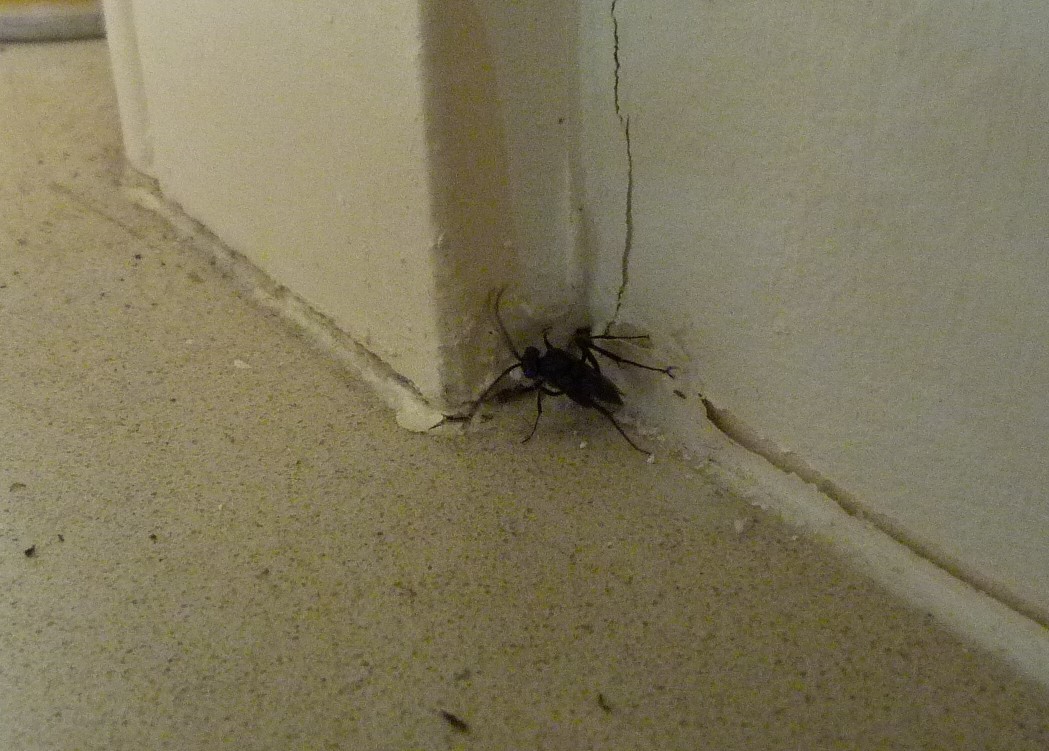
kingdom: Animalia
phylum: Arthropoda
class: Insecta
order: Hymenoptera
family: Evaniidae
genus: Evania
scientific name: Evania appendigaster
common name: Ensign wasp
